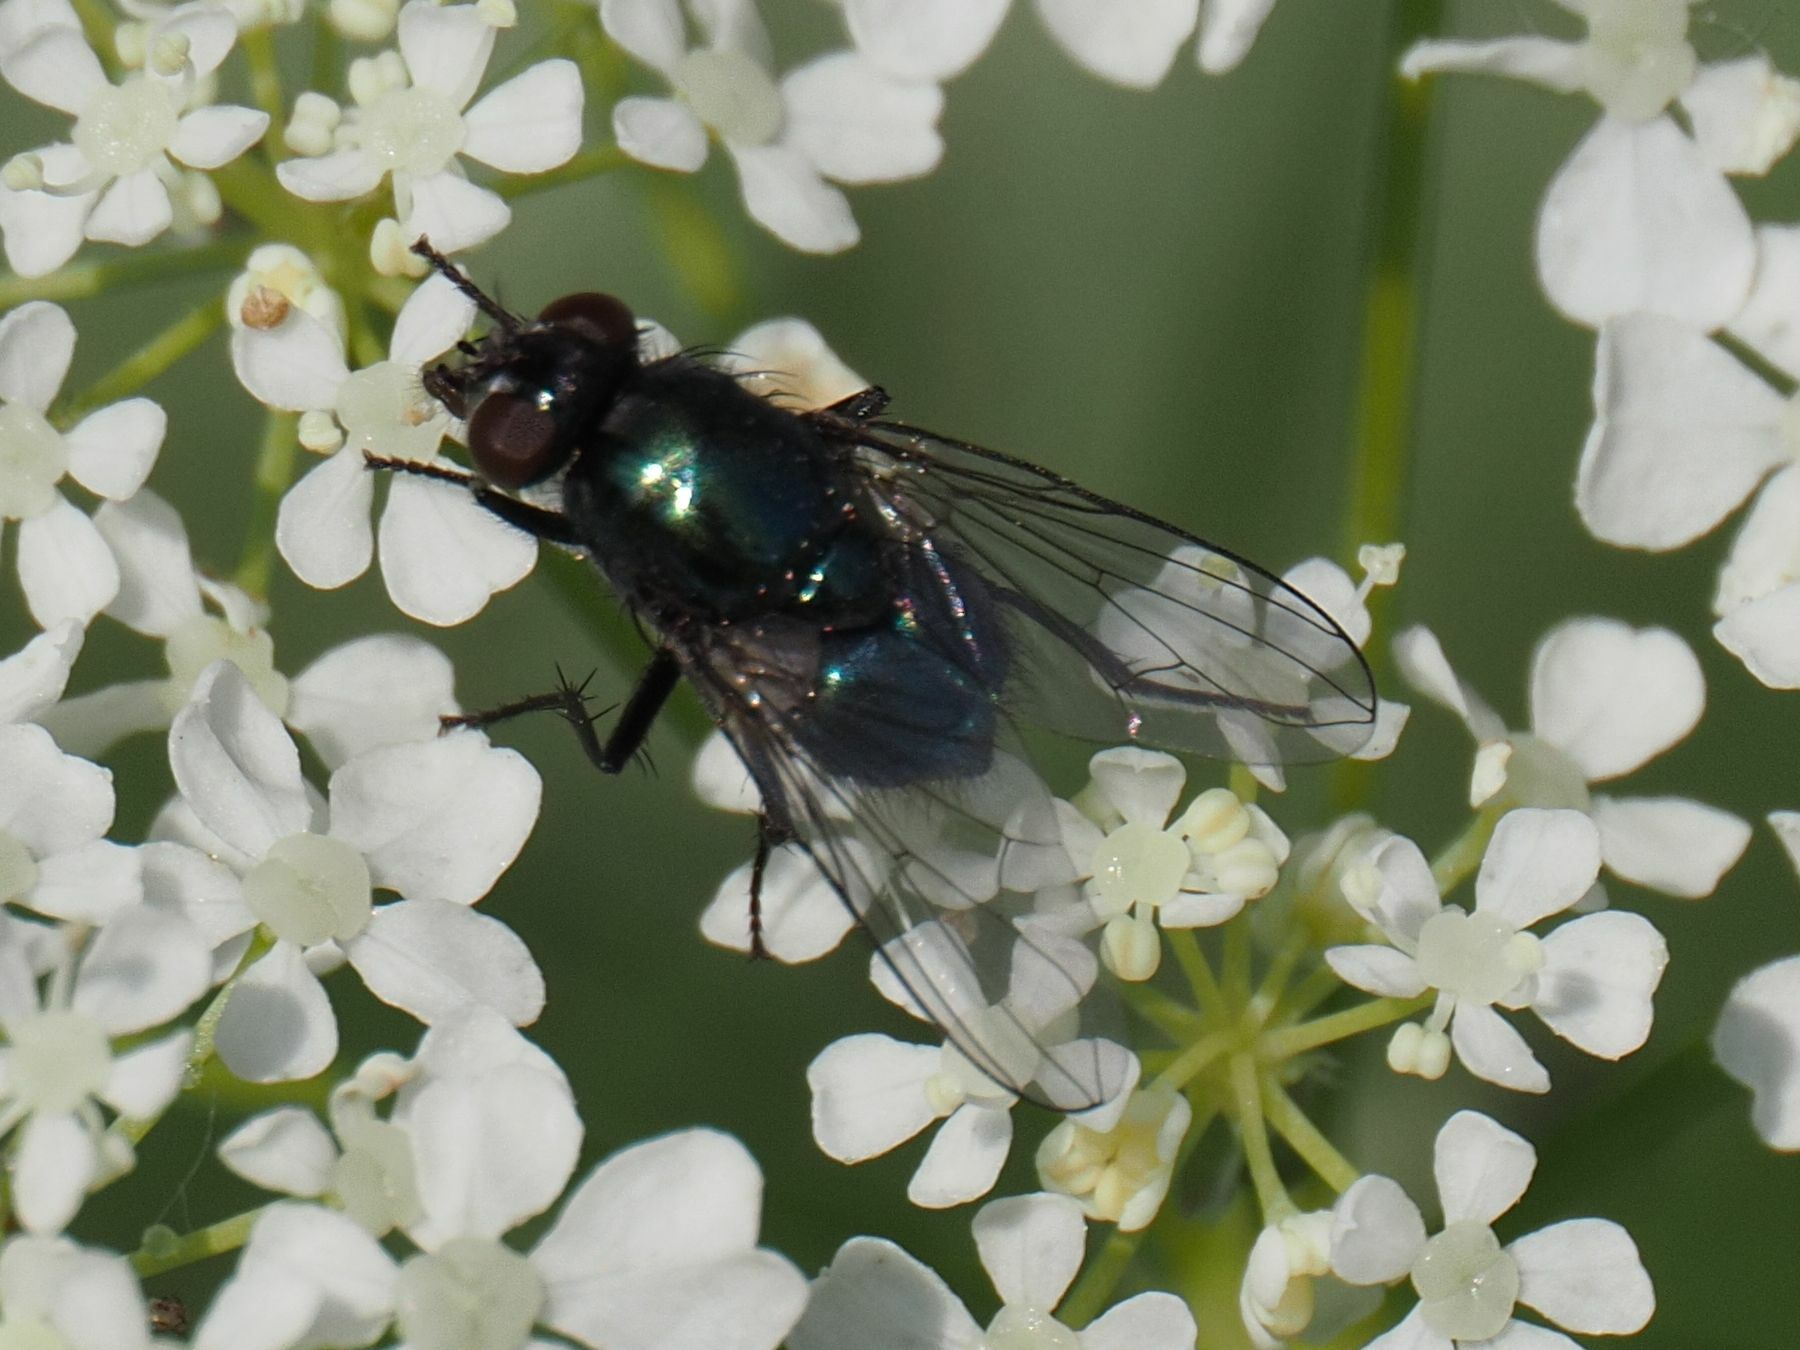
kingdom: Animalia
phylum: Arthropoda
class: Insecta
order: Diptera
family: Muscidae
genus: Pyrellia
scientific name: Pyrellia rapax
